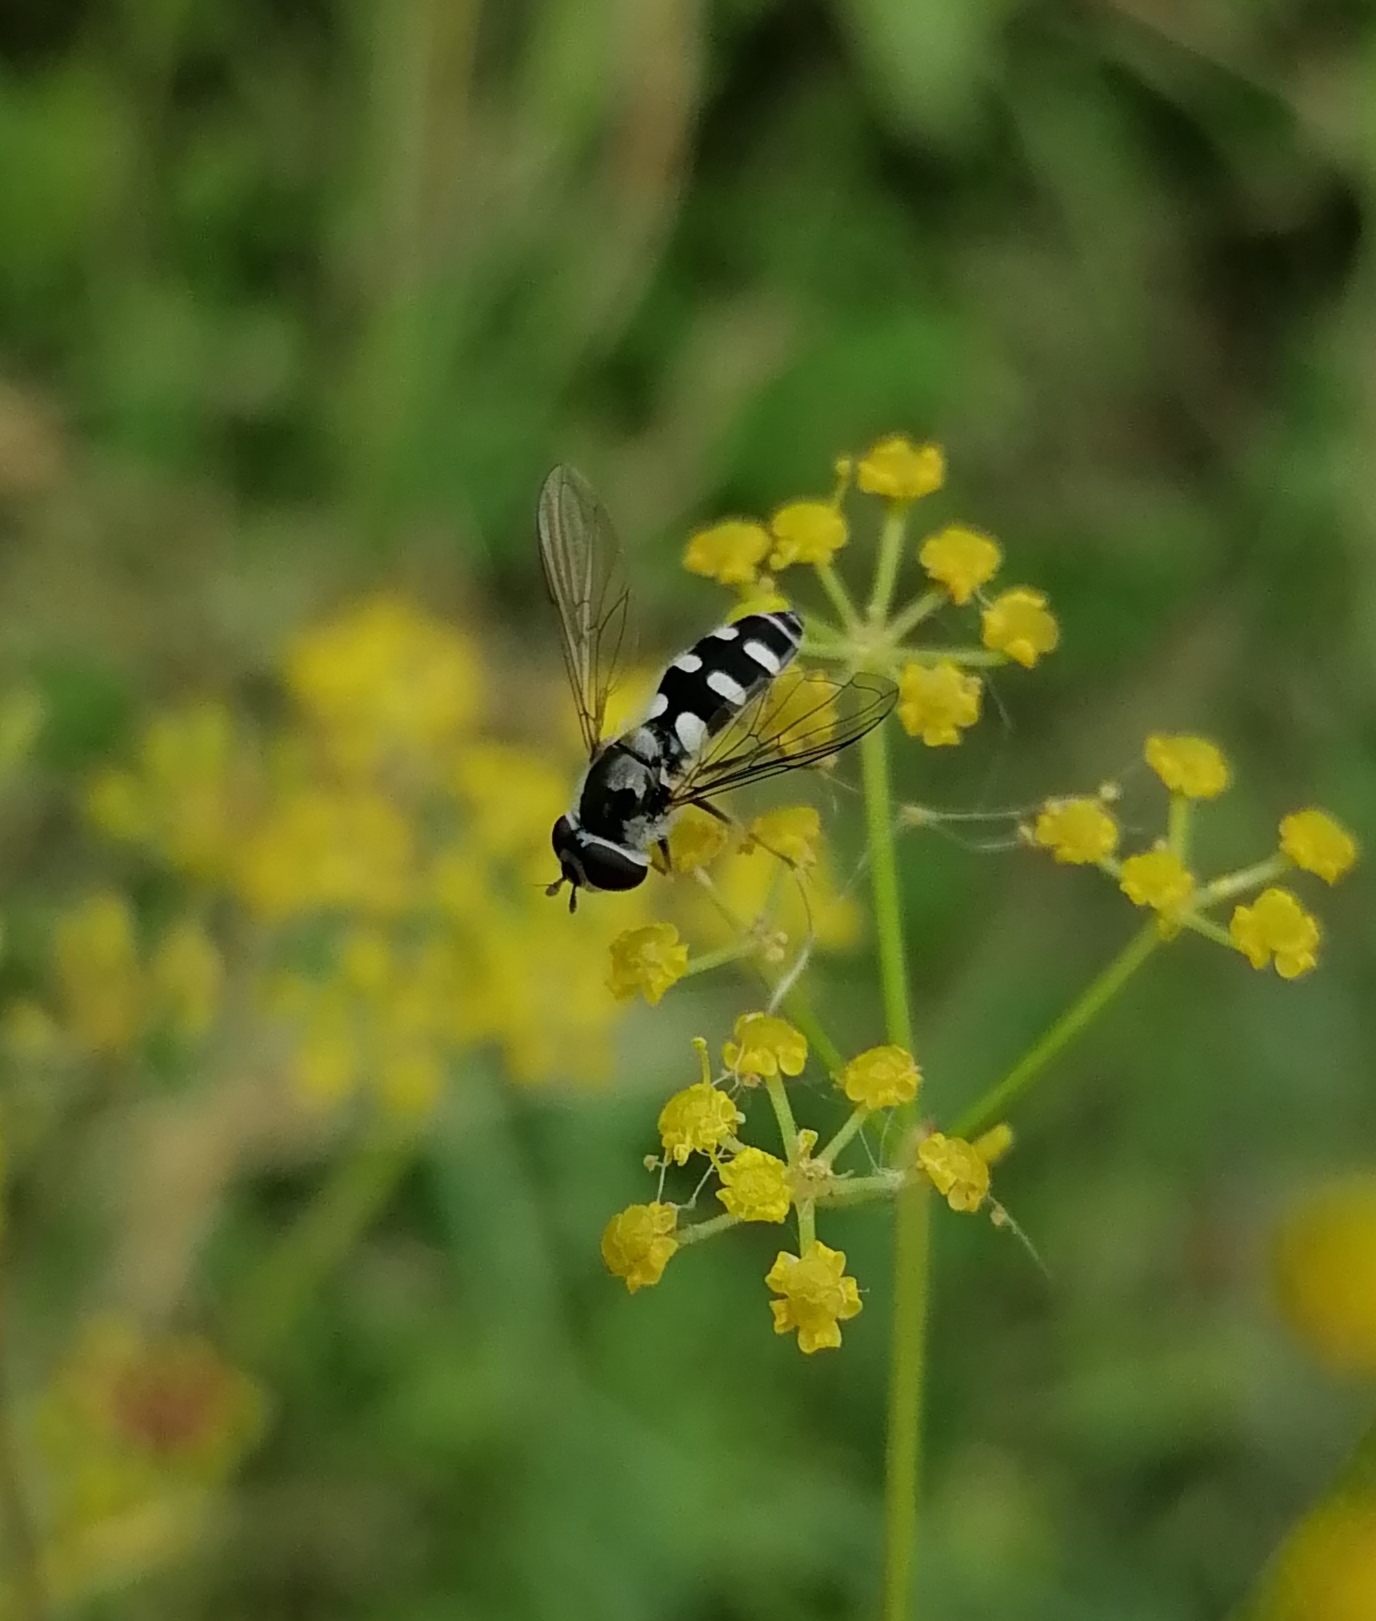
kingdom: Animalia
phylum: Arthropoda
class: Insecta
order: Diptera
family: Syrphidae
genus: Melangyna
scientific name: Melangyna umbellatarum
